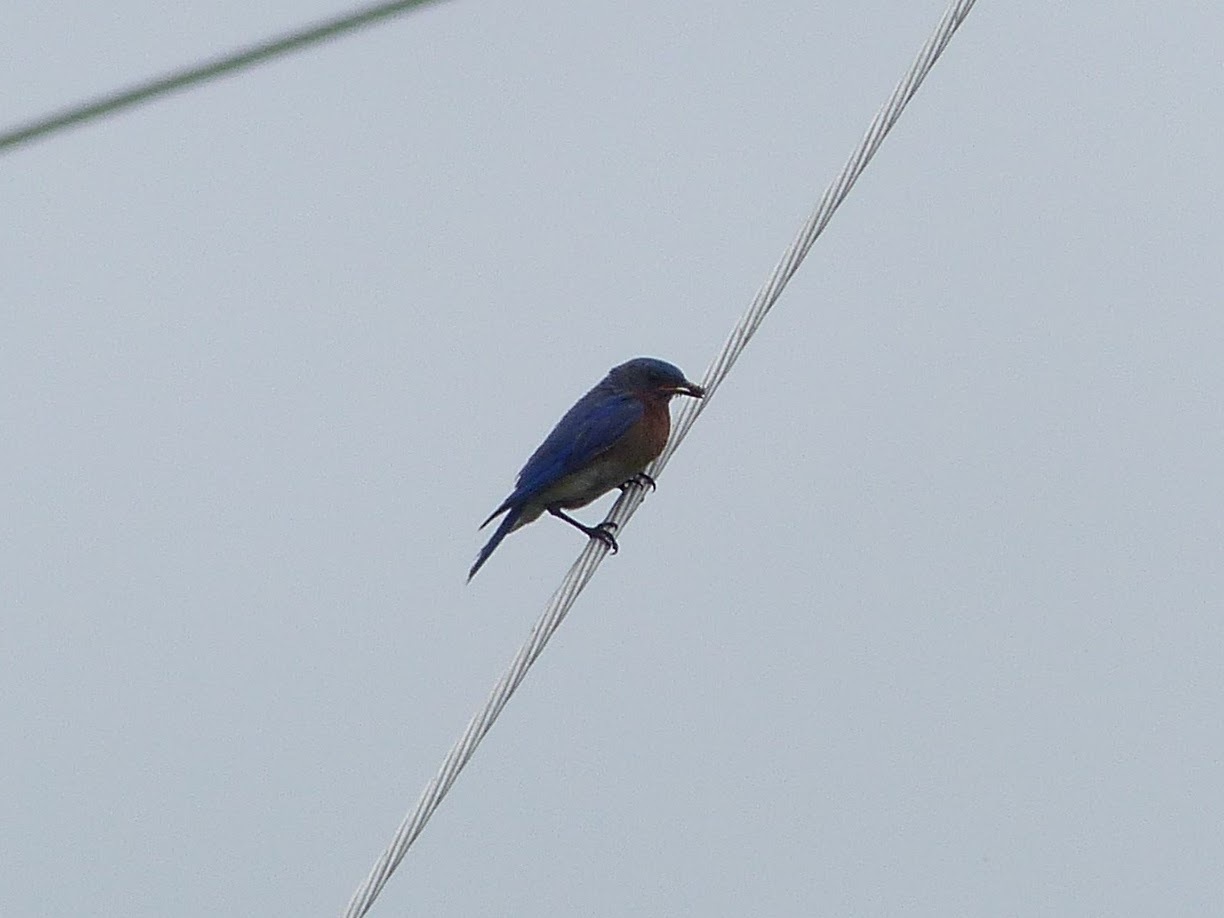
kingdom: Animalia
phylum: Chordata
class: Aves
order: Passeriformes
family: Turdidae
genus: Sialia
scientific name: Sialia sialis
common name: Eastern bluebird
